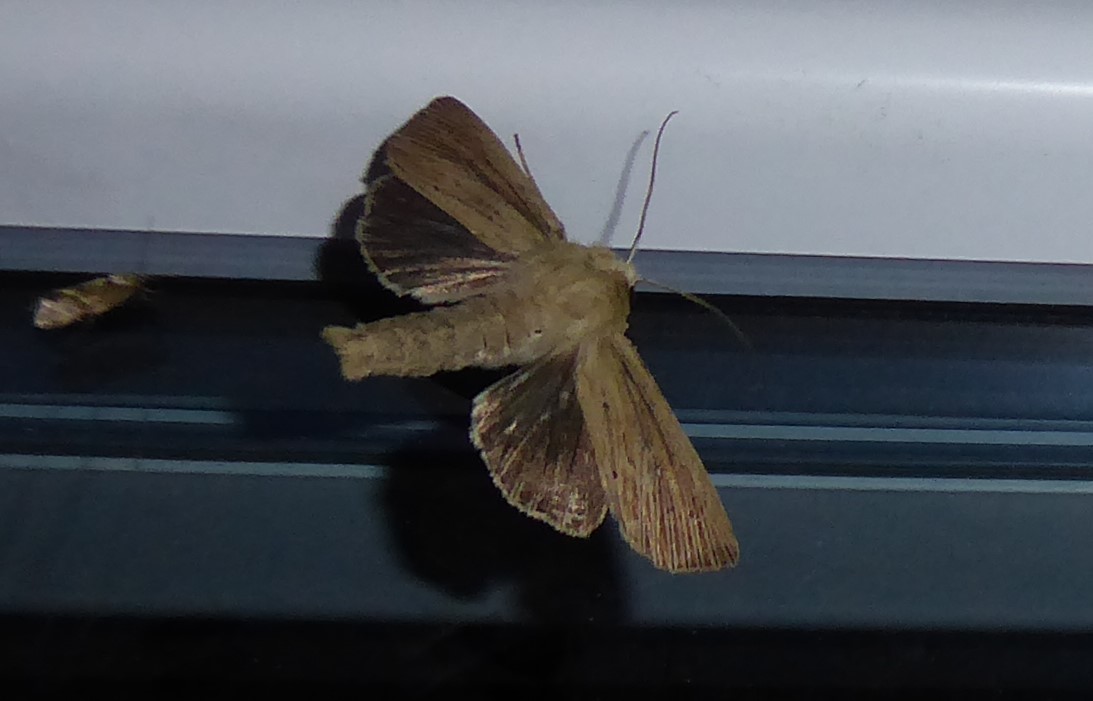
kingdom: Animalia
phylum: Arthropoda
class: Insecta
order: Lepidoptera
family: Noctuidae
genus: Ichneutica
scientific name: Ichneutica arotis
